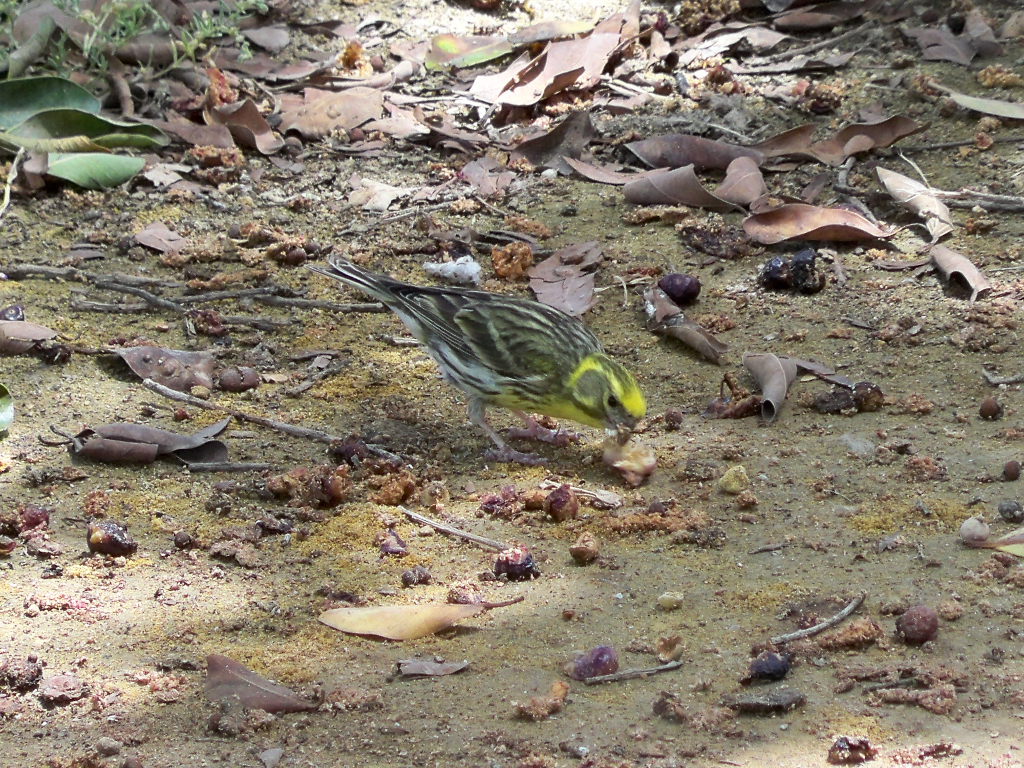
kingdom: Animalia
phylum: Chordata
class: Aves
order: Passeriformes
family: Fringillidae
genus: Serinus
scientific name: Serinus serinus
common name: European serin
